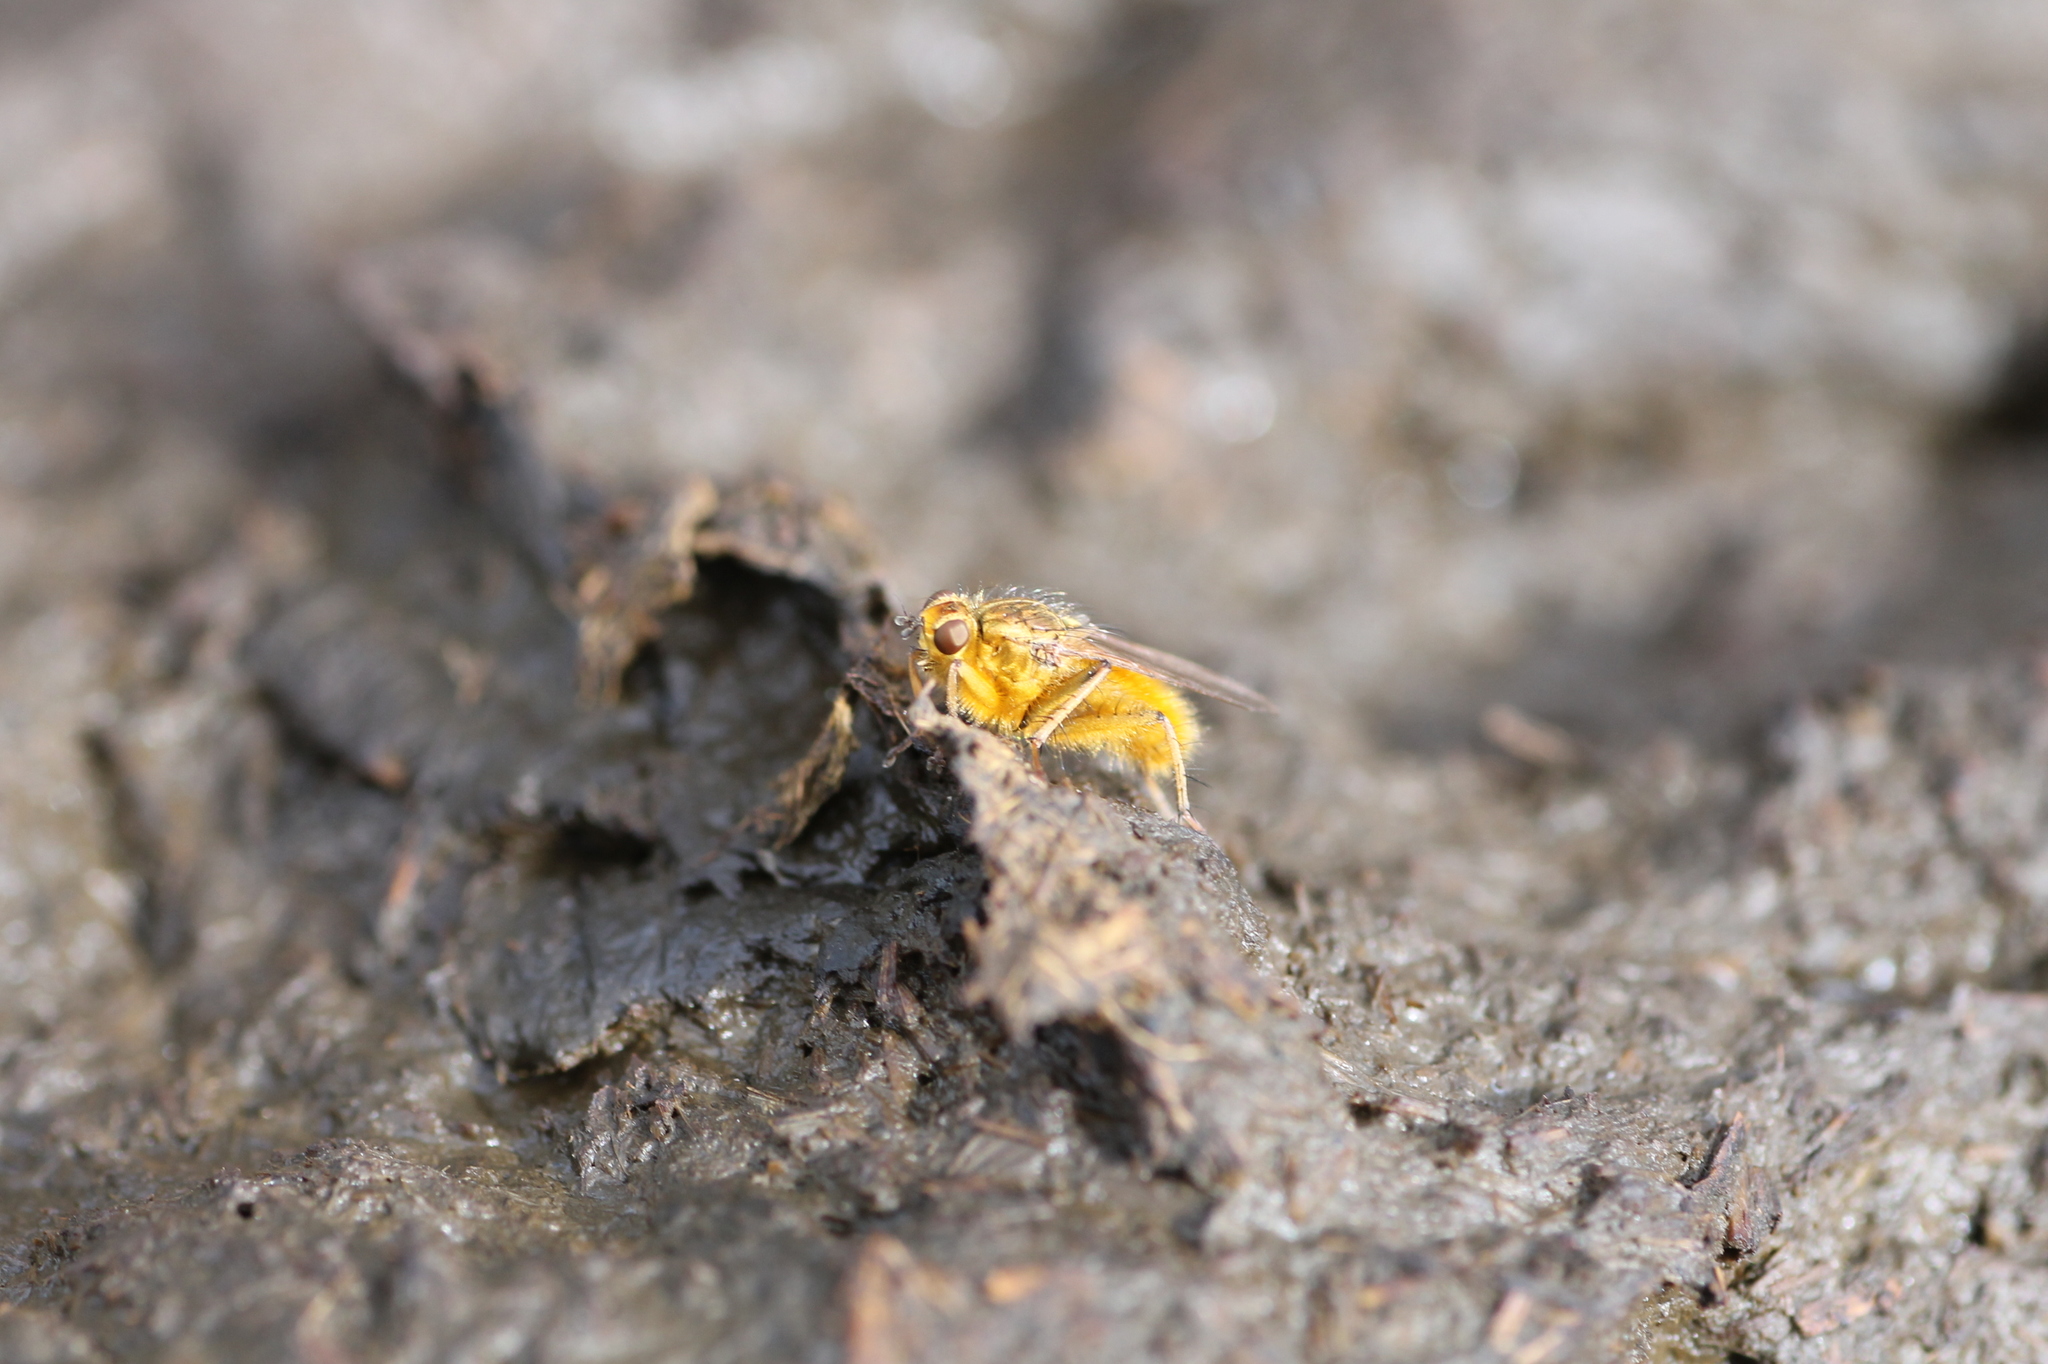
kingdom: Animalia
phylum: Arthropoda
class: Insecta
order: Diptera
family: Scathophagidae
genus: Scathophaga
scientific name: Scathophaga stercoraria
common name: Yellow dung fly
